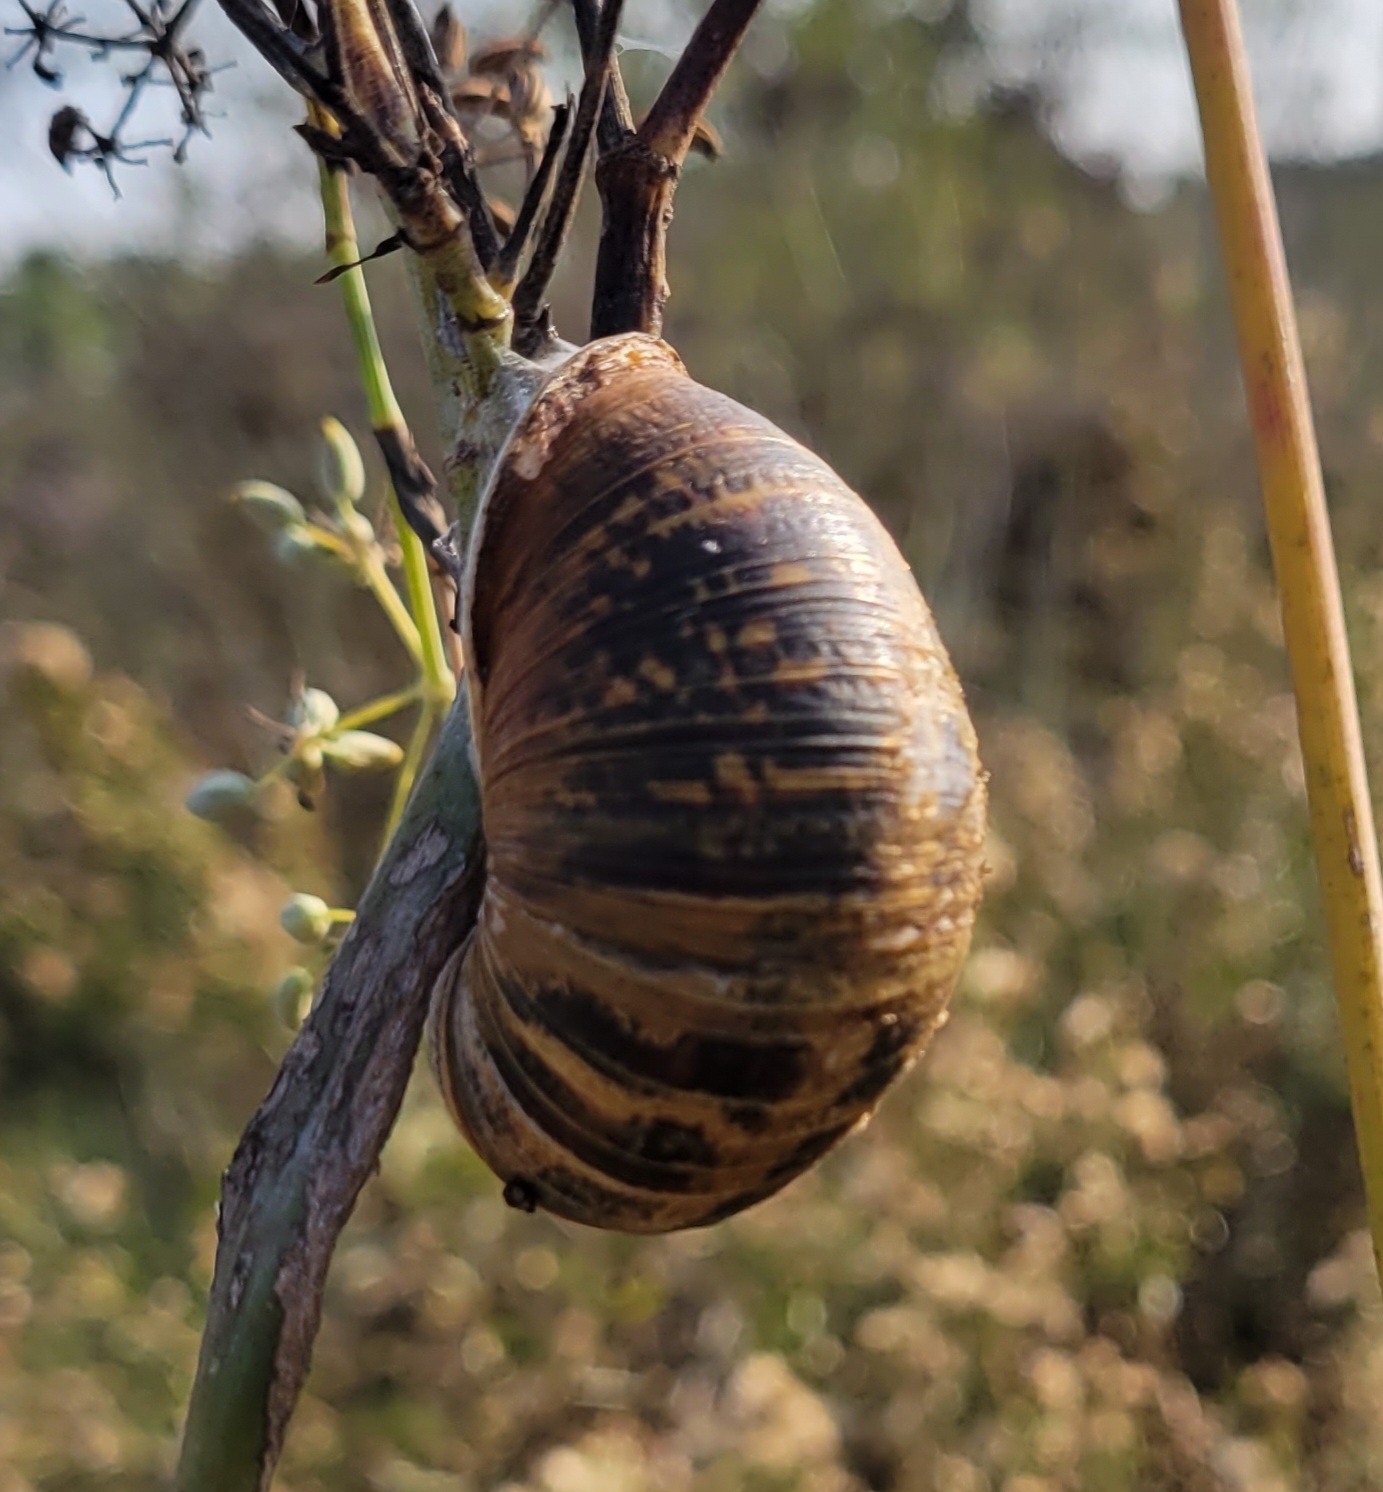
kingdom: Animalia
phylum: Mollusca
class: Gastropoda
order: Stylommatophora
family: Helicidae
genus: Cornu
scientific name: Cornu aspersum
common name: Brown garden snail
